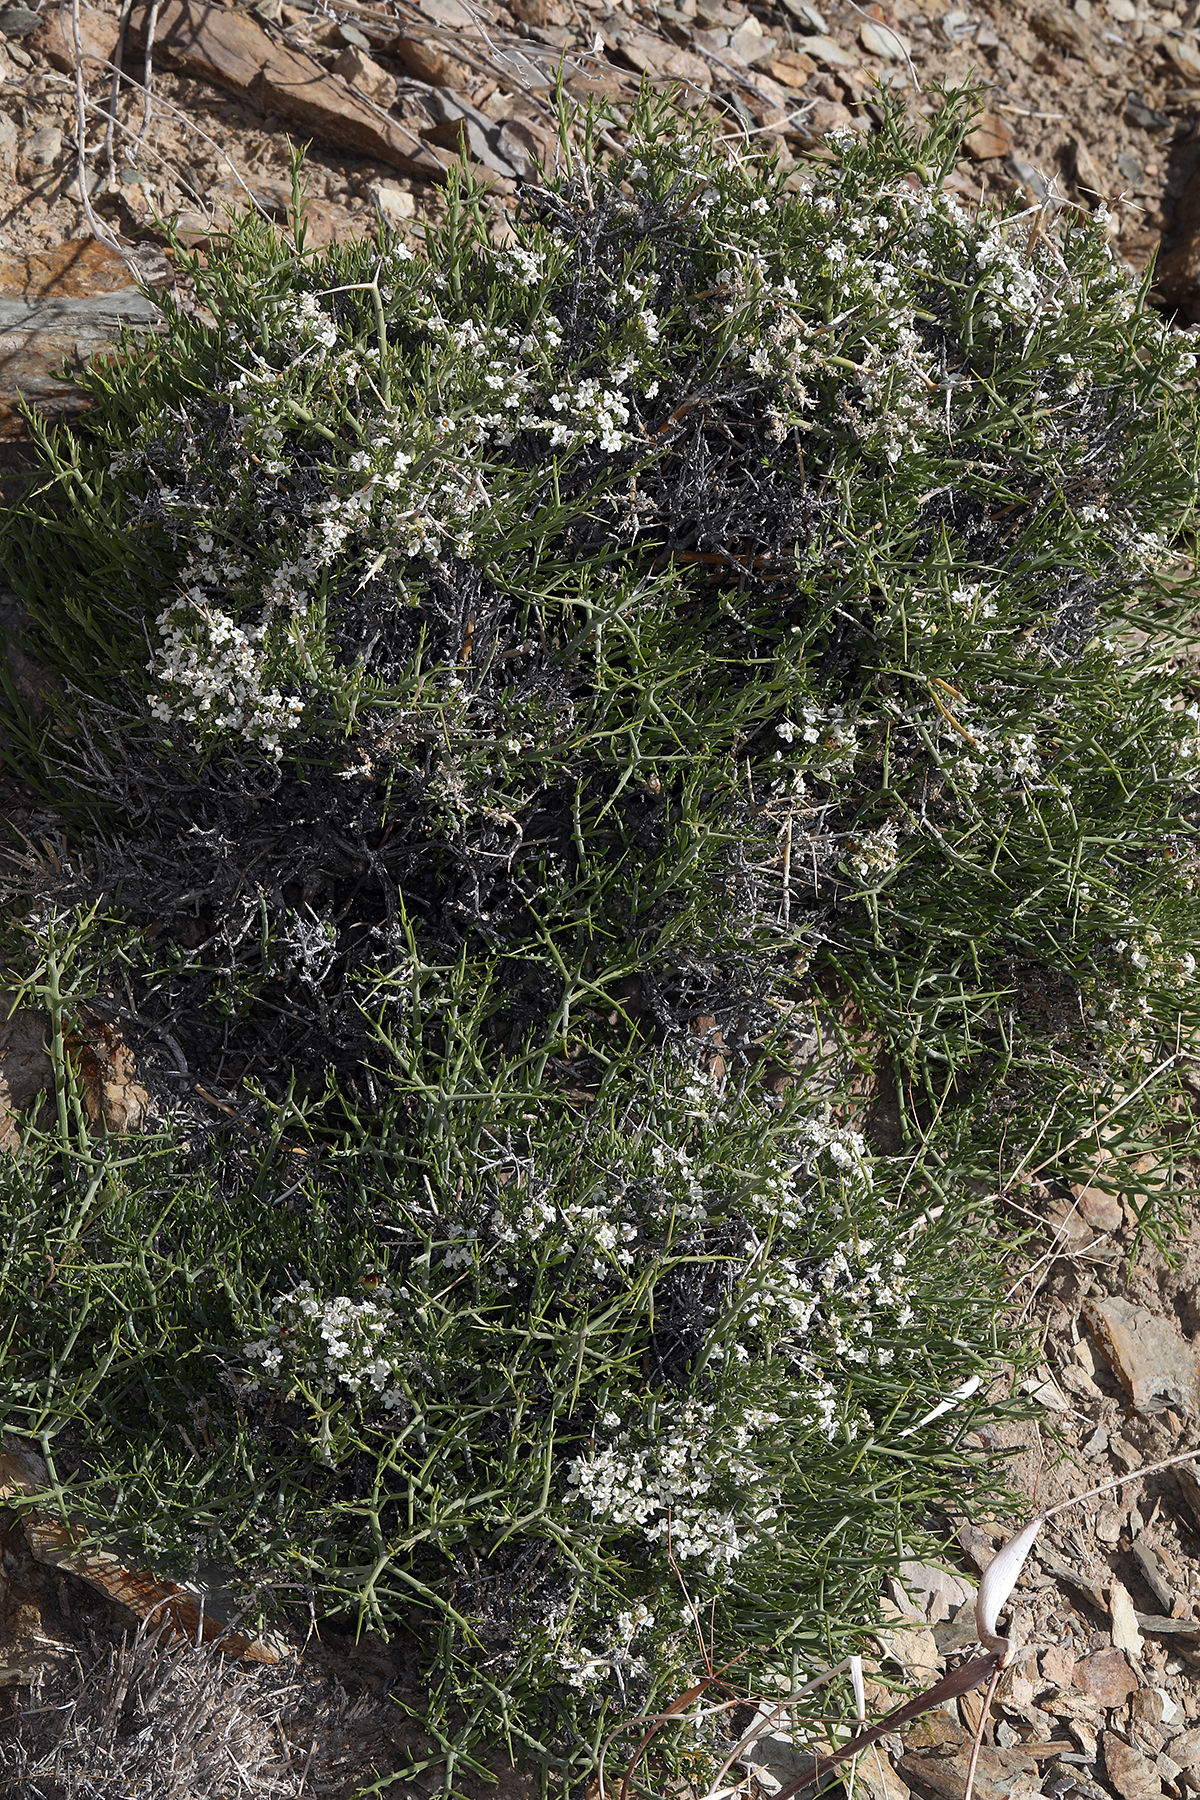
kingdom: Plantae
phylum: Tracheophyta
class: Magnoliopsida
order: Lamiales
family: Oleaceae
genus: Menodora
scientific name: Menodora spinescens
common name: Spiny menodora
